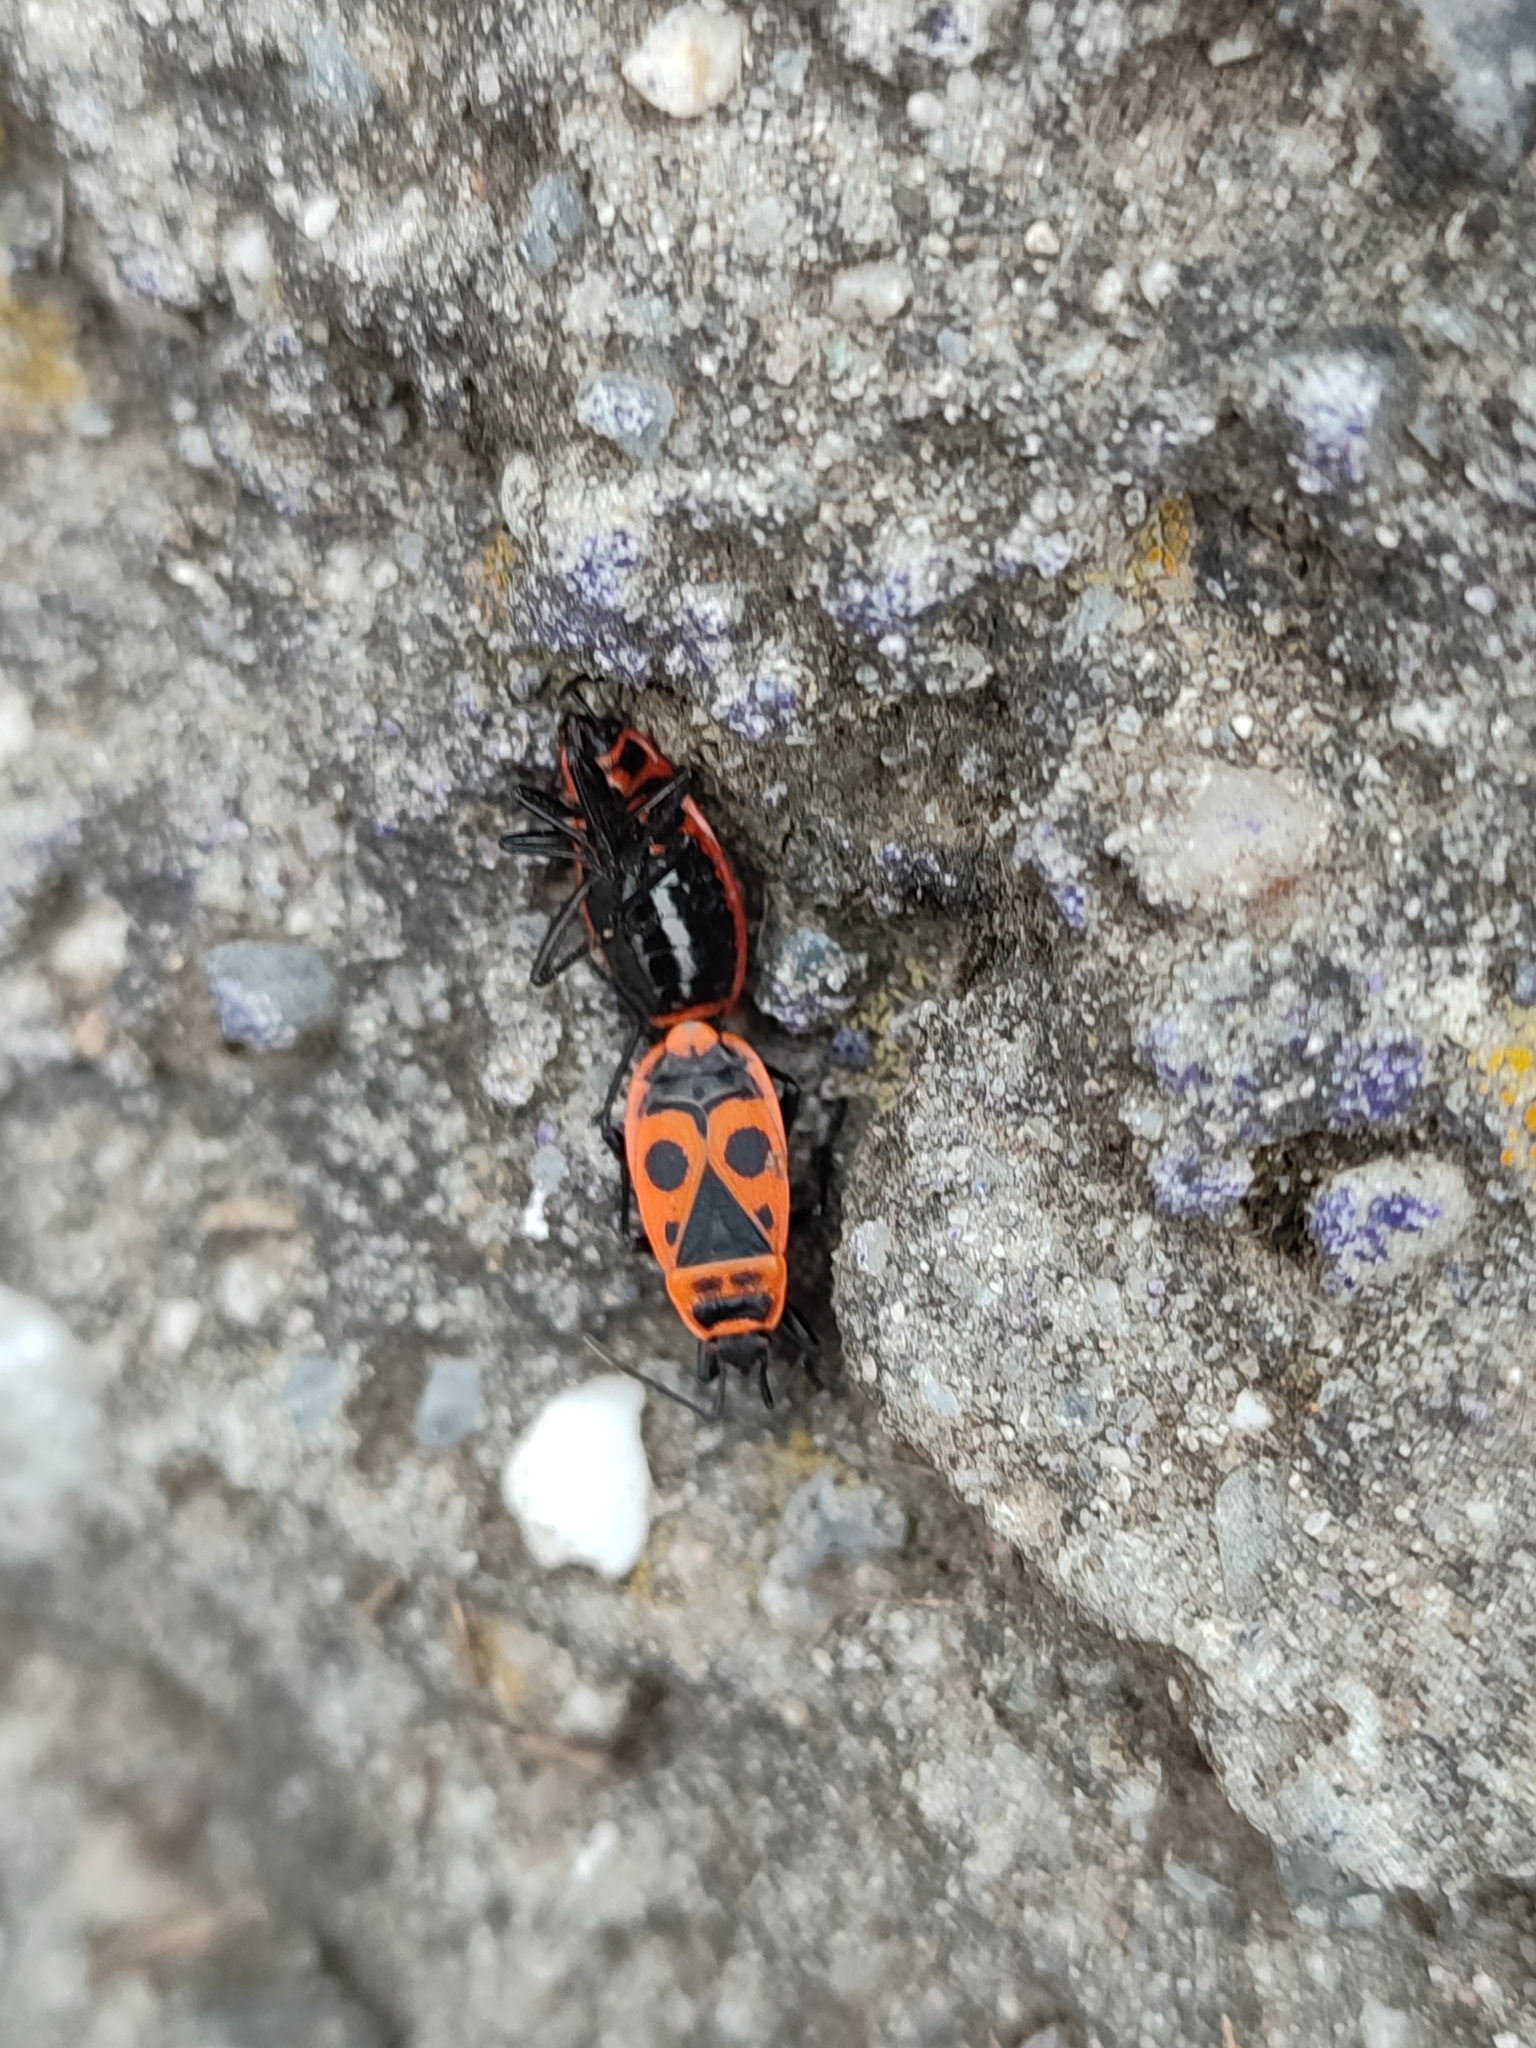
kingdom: Animalia
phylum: Arthropoda
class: Insecta
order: Hemiptera
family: Pyrrhocoridae
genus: Pyrrhocoris
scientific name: Pyrrhocoris apterus
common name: Firebug
